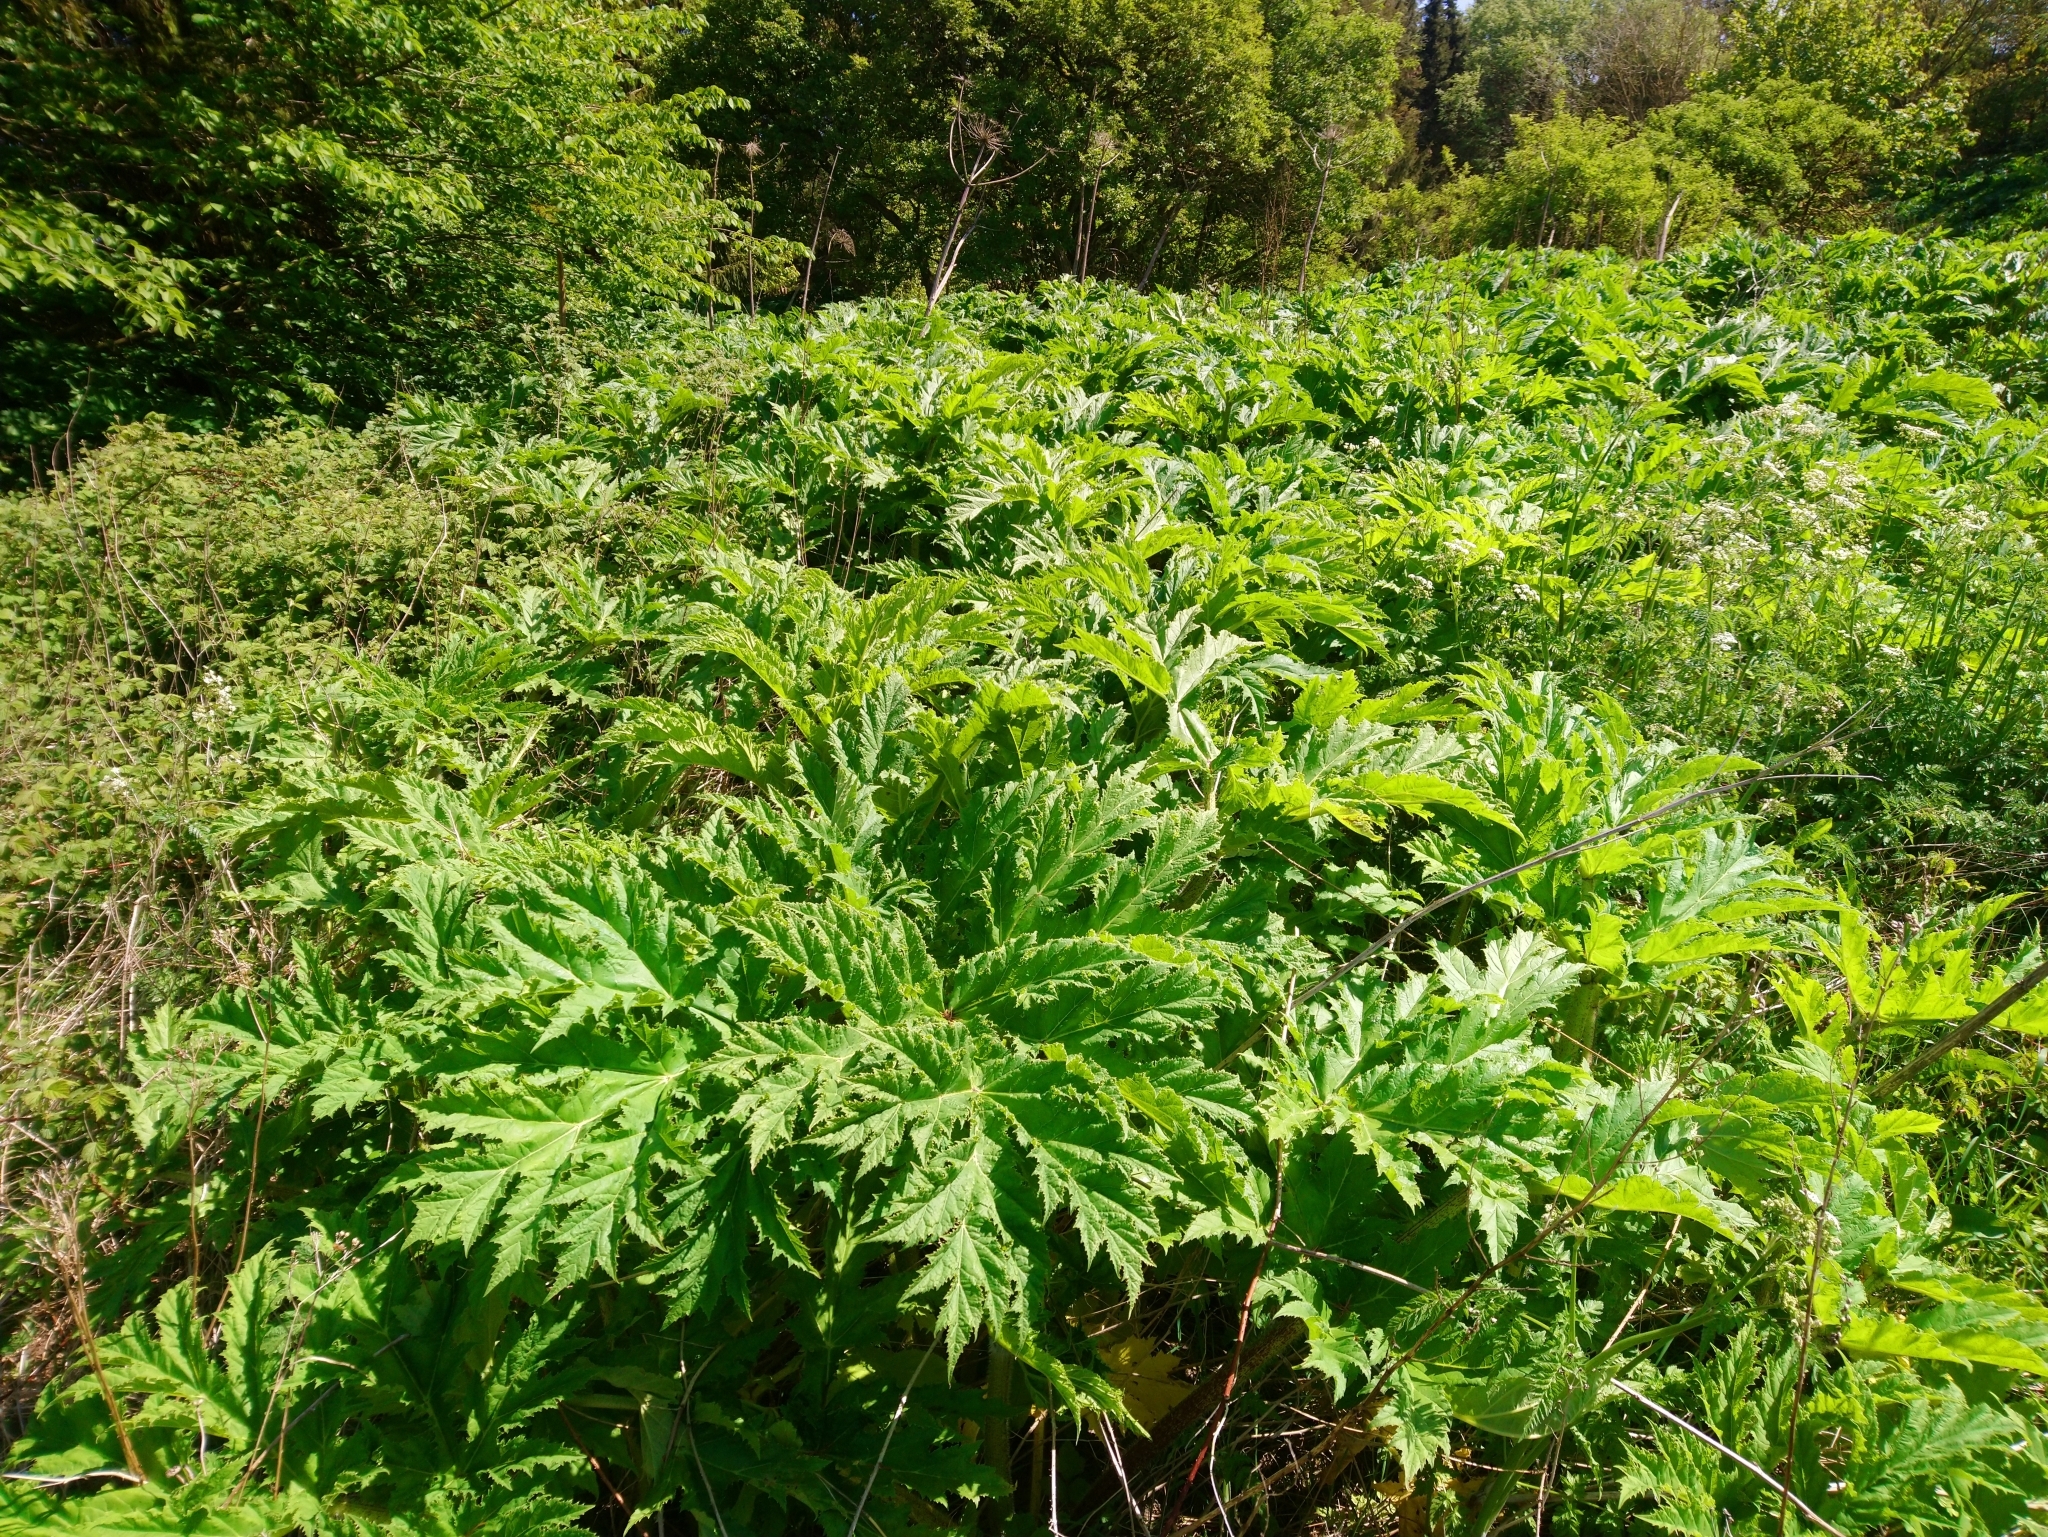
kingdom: Plantae
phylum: Tracheophyta
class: Magnoliopsida
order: Apiales
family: Apiaceae
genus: Heracleum
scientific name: Heracleum mantegazzianum
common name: Giant hogweed
